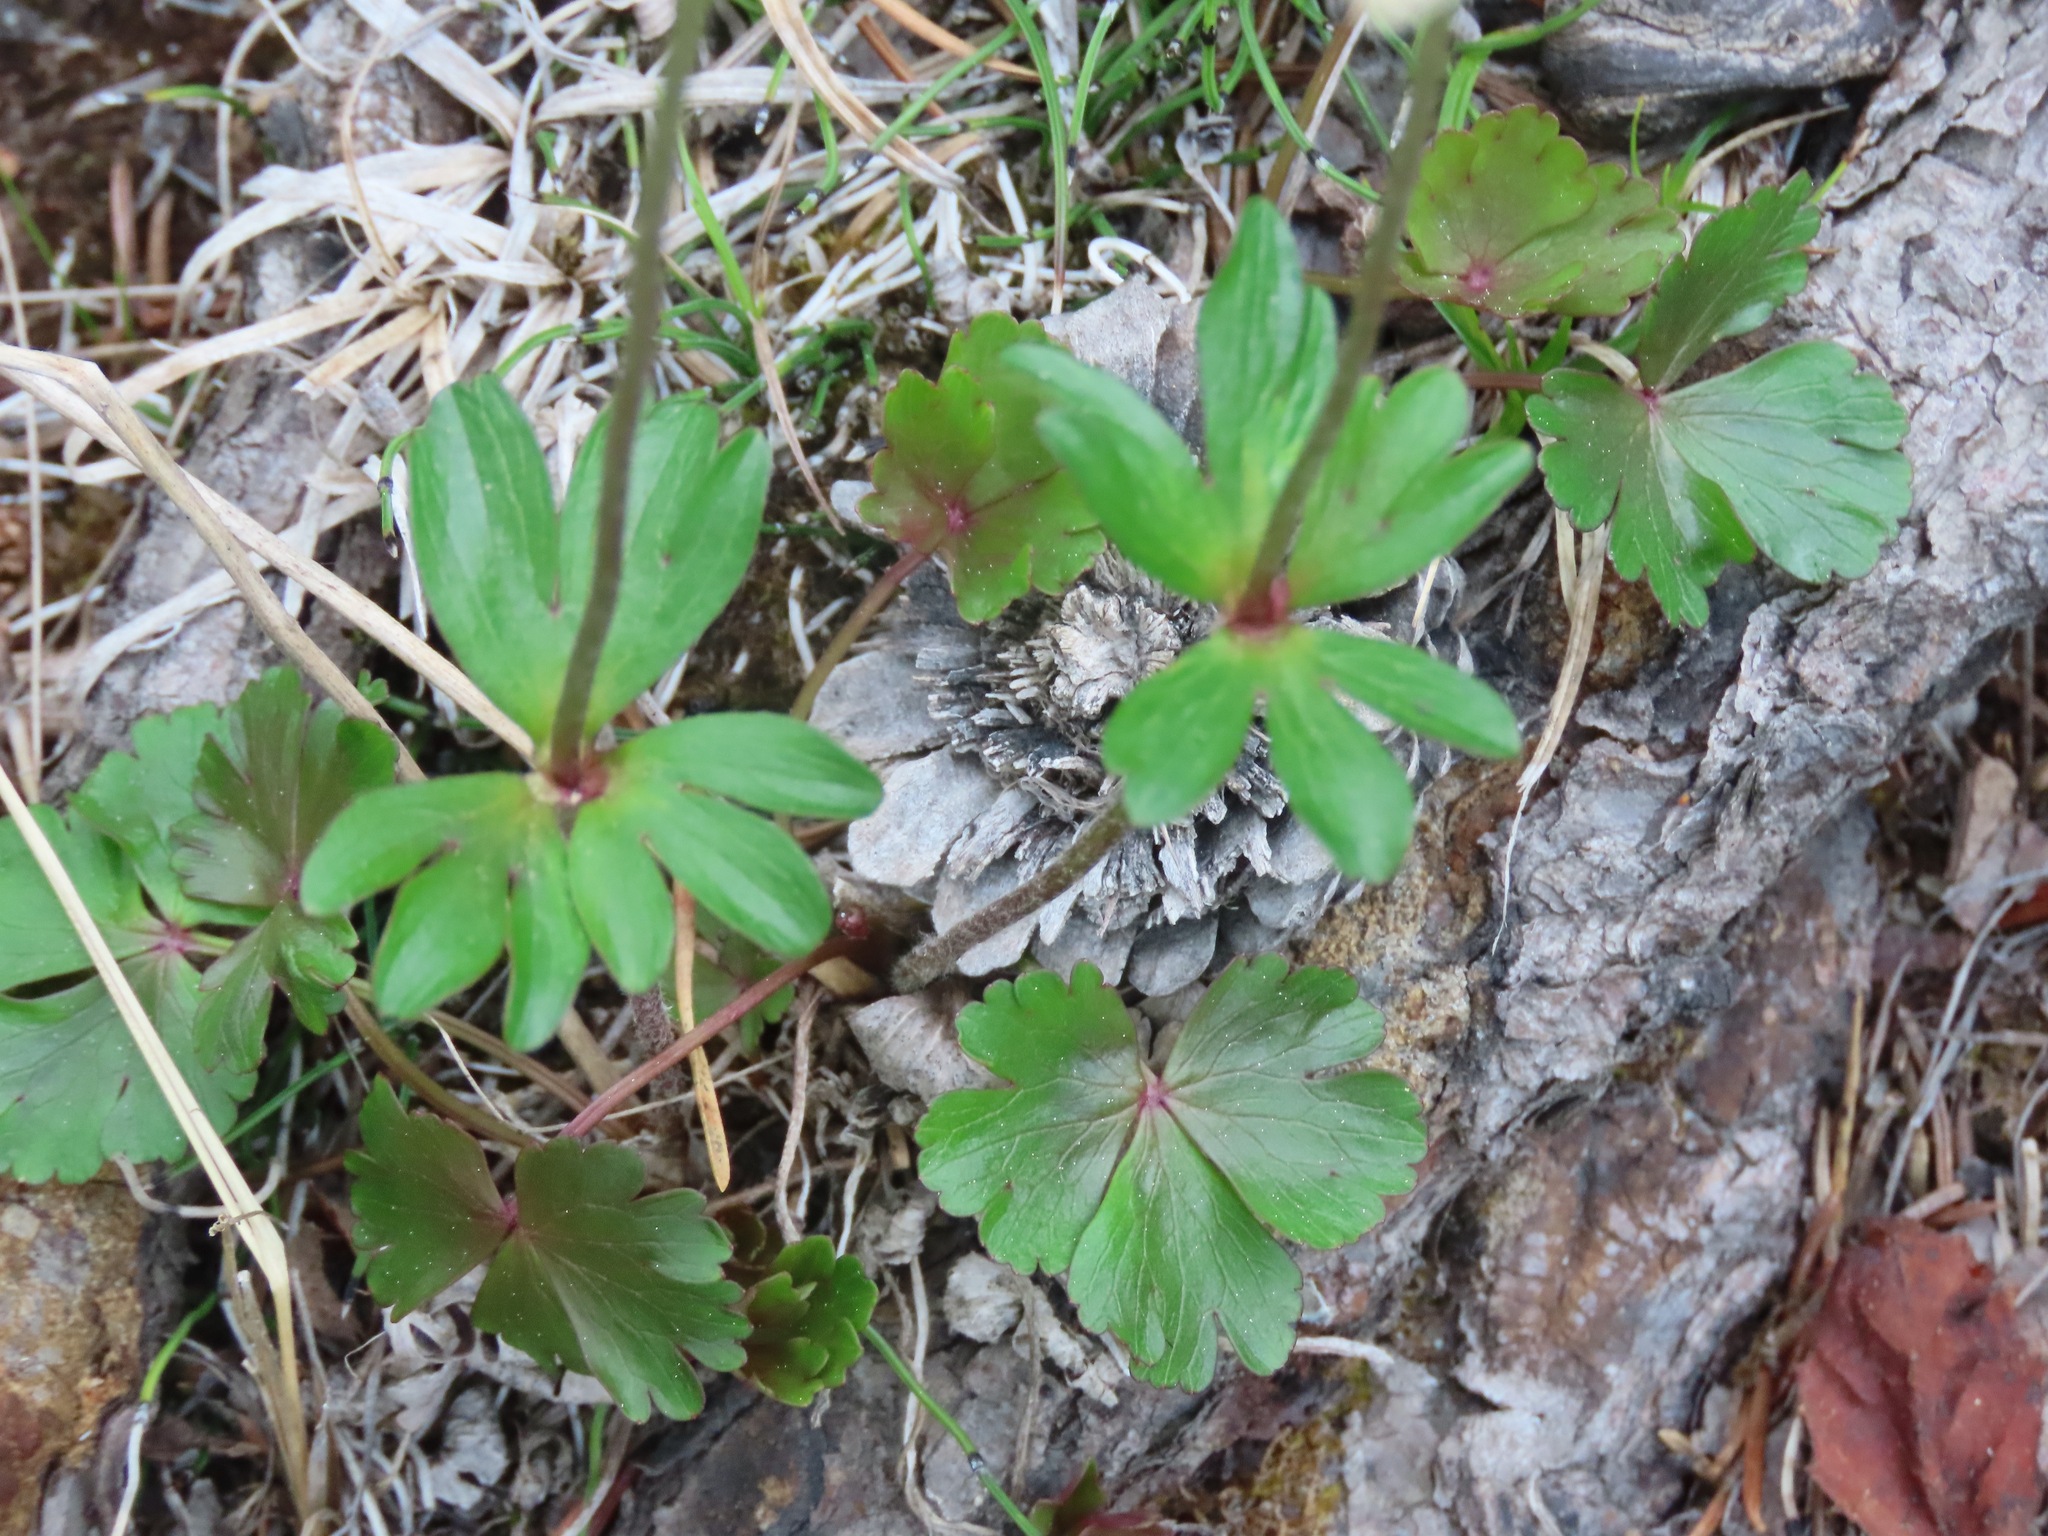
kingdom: Plantae
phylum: Tracheophyta
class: Magnoliopsida
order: Ranunculales
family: Ranunculaceae
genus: Anemone
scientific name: Anemone parviflora
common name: Northern anemone
